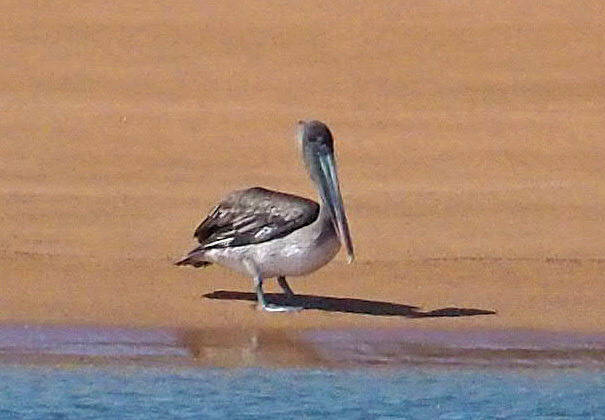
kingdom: Animalia
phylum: Chordata
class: Aves
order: Pelecaniformes
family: Pelecanidae
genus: Pelecanus
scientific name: Pelecanus occidentalis
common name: Brown pelican
